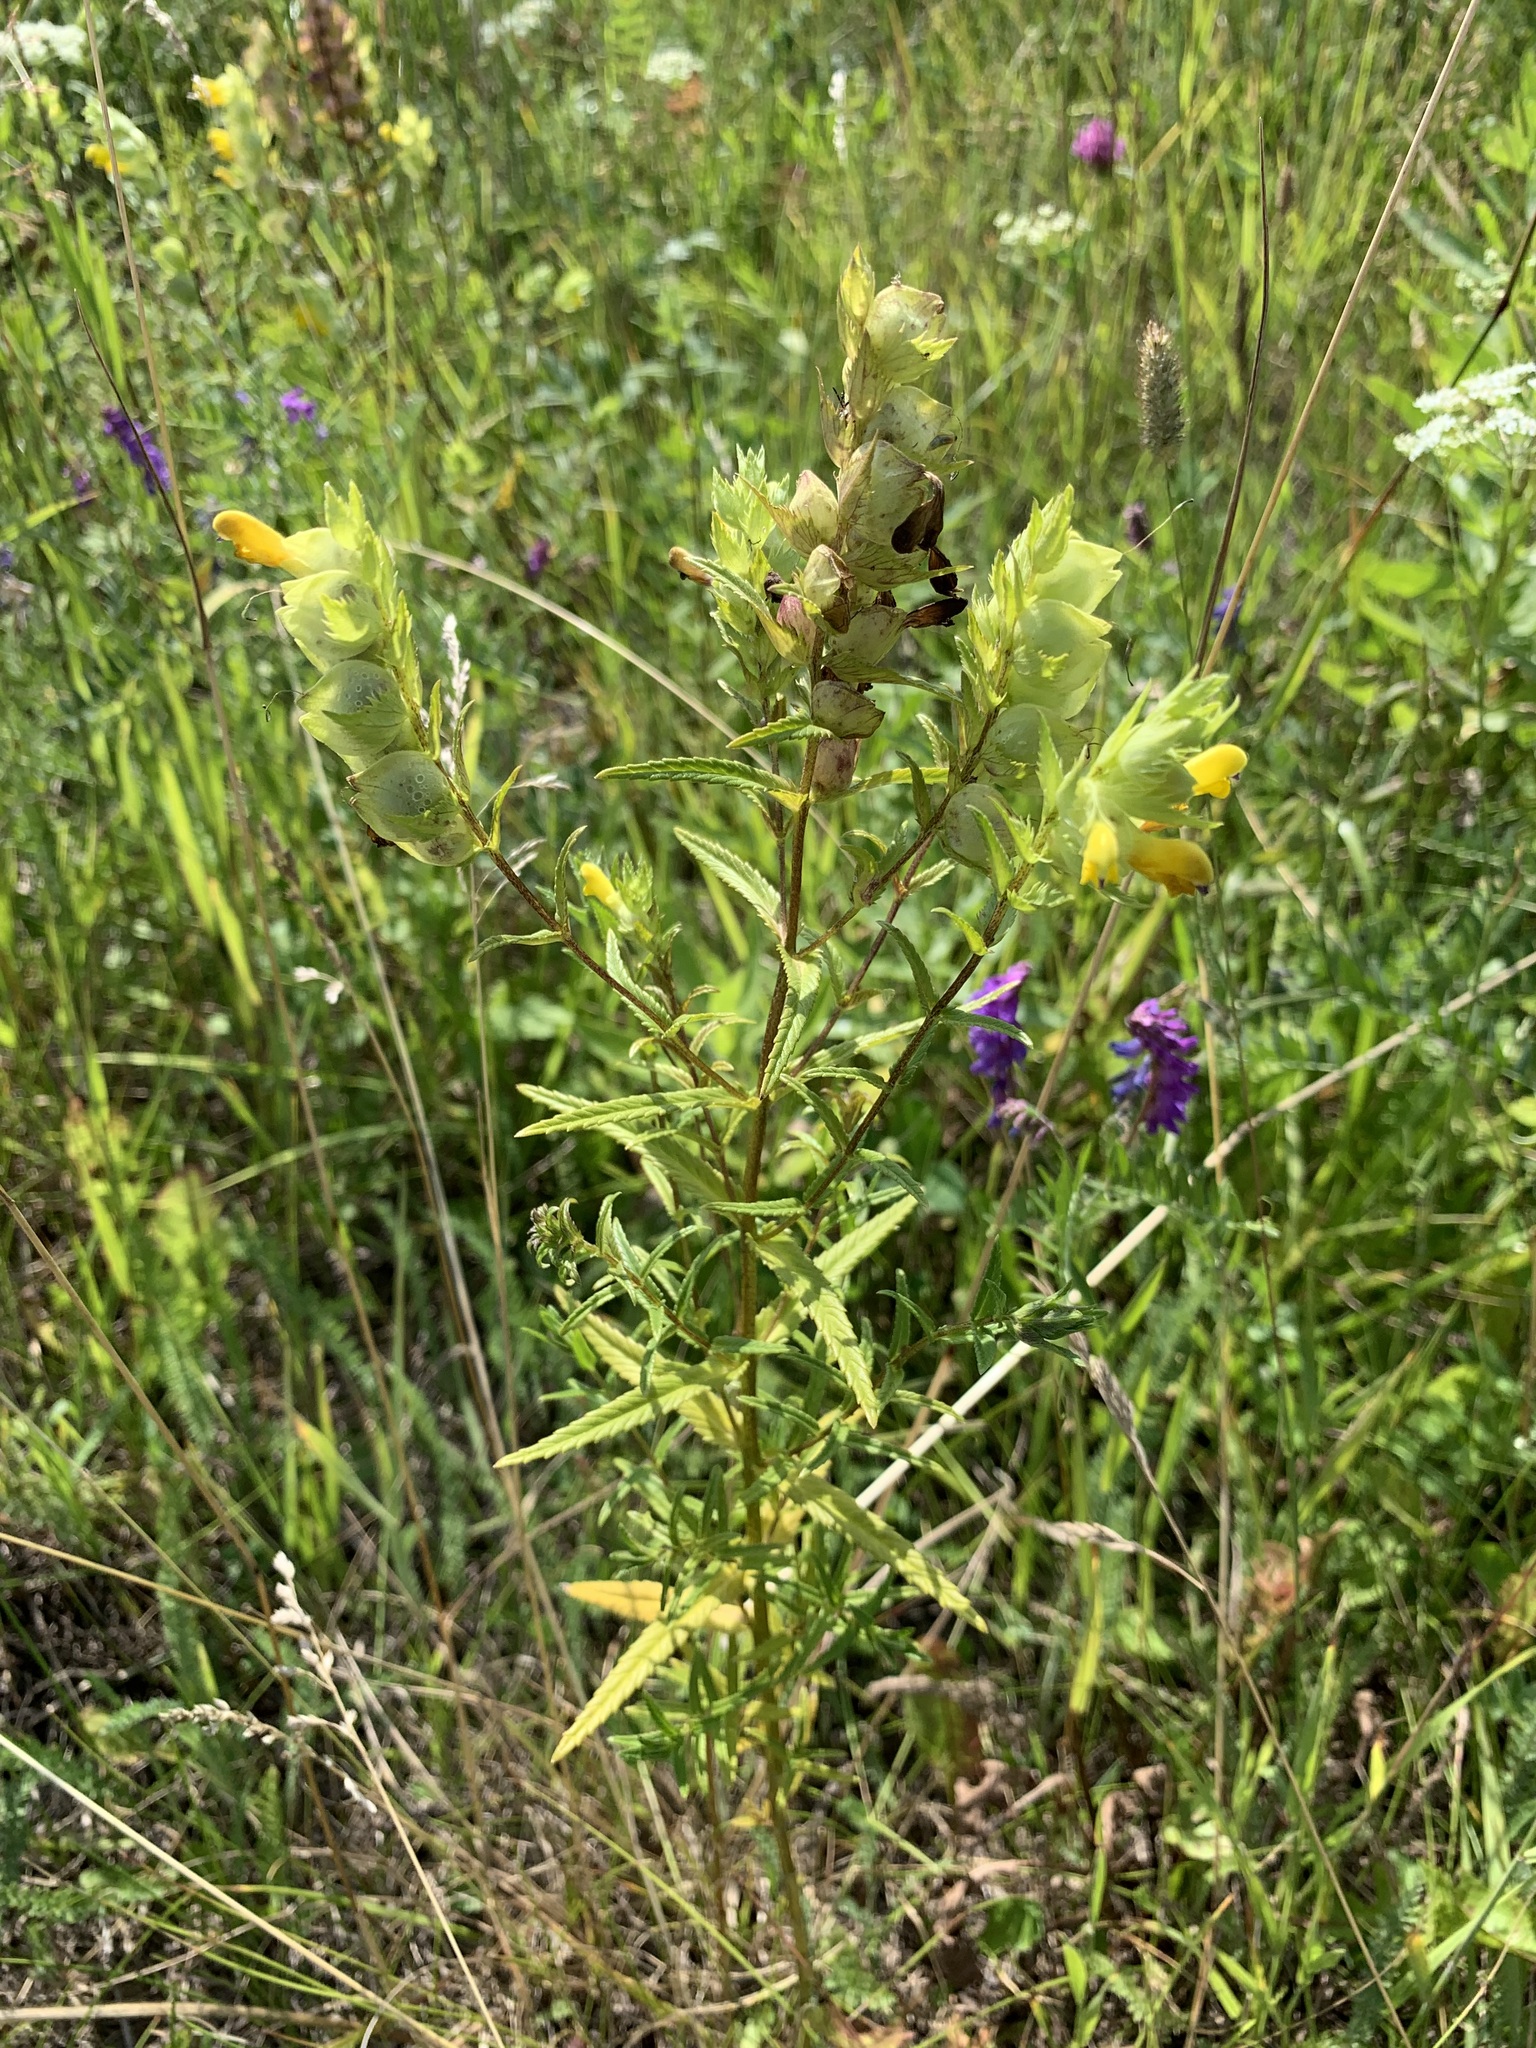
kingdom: Plantae
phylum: Tracheophyta
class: Magnoliopsida
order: Lamiales
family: Orobanchaceae
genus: Rhinanthus
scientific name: Rhinanthus serotinus
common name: Late-flowering yellow rattle
